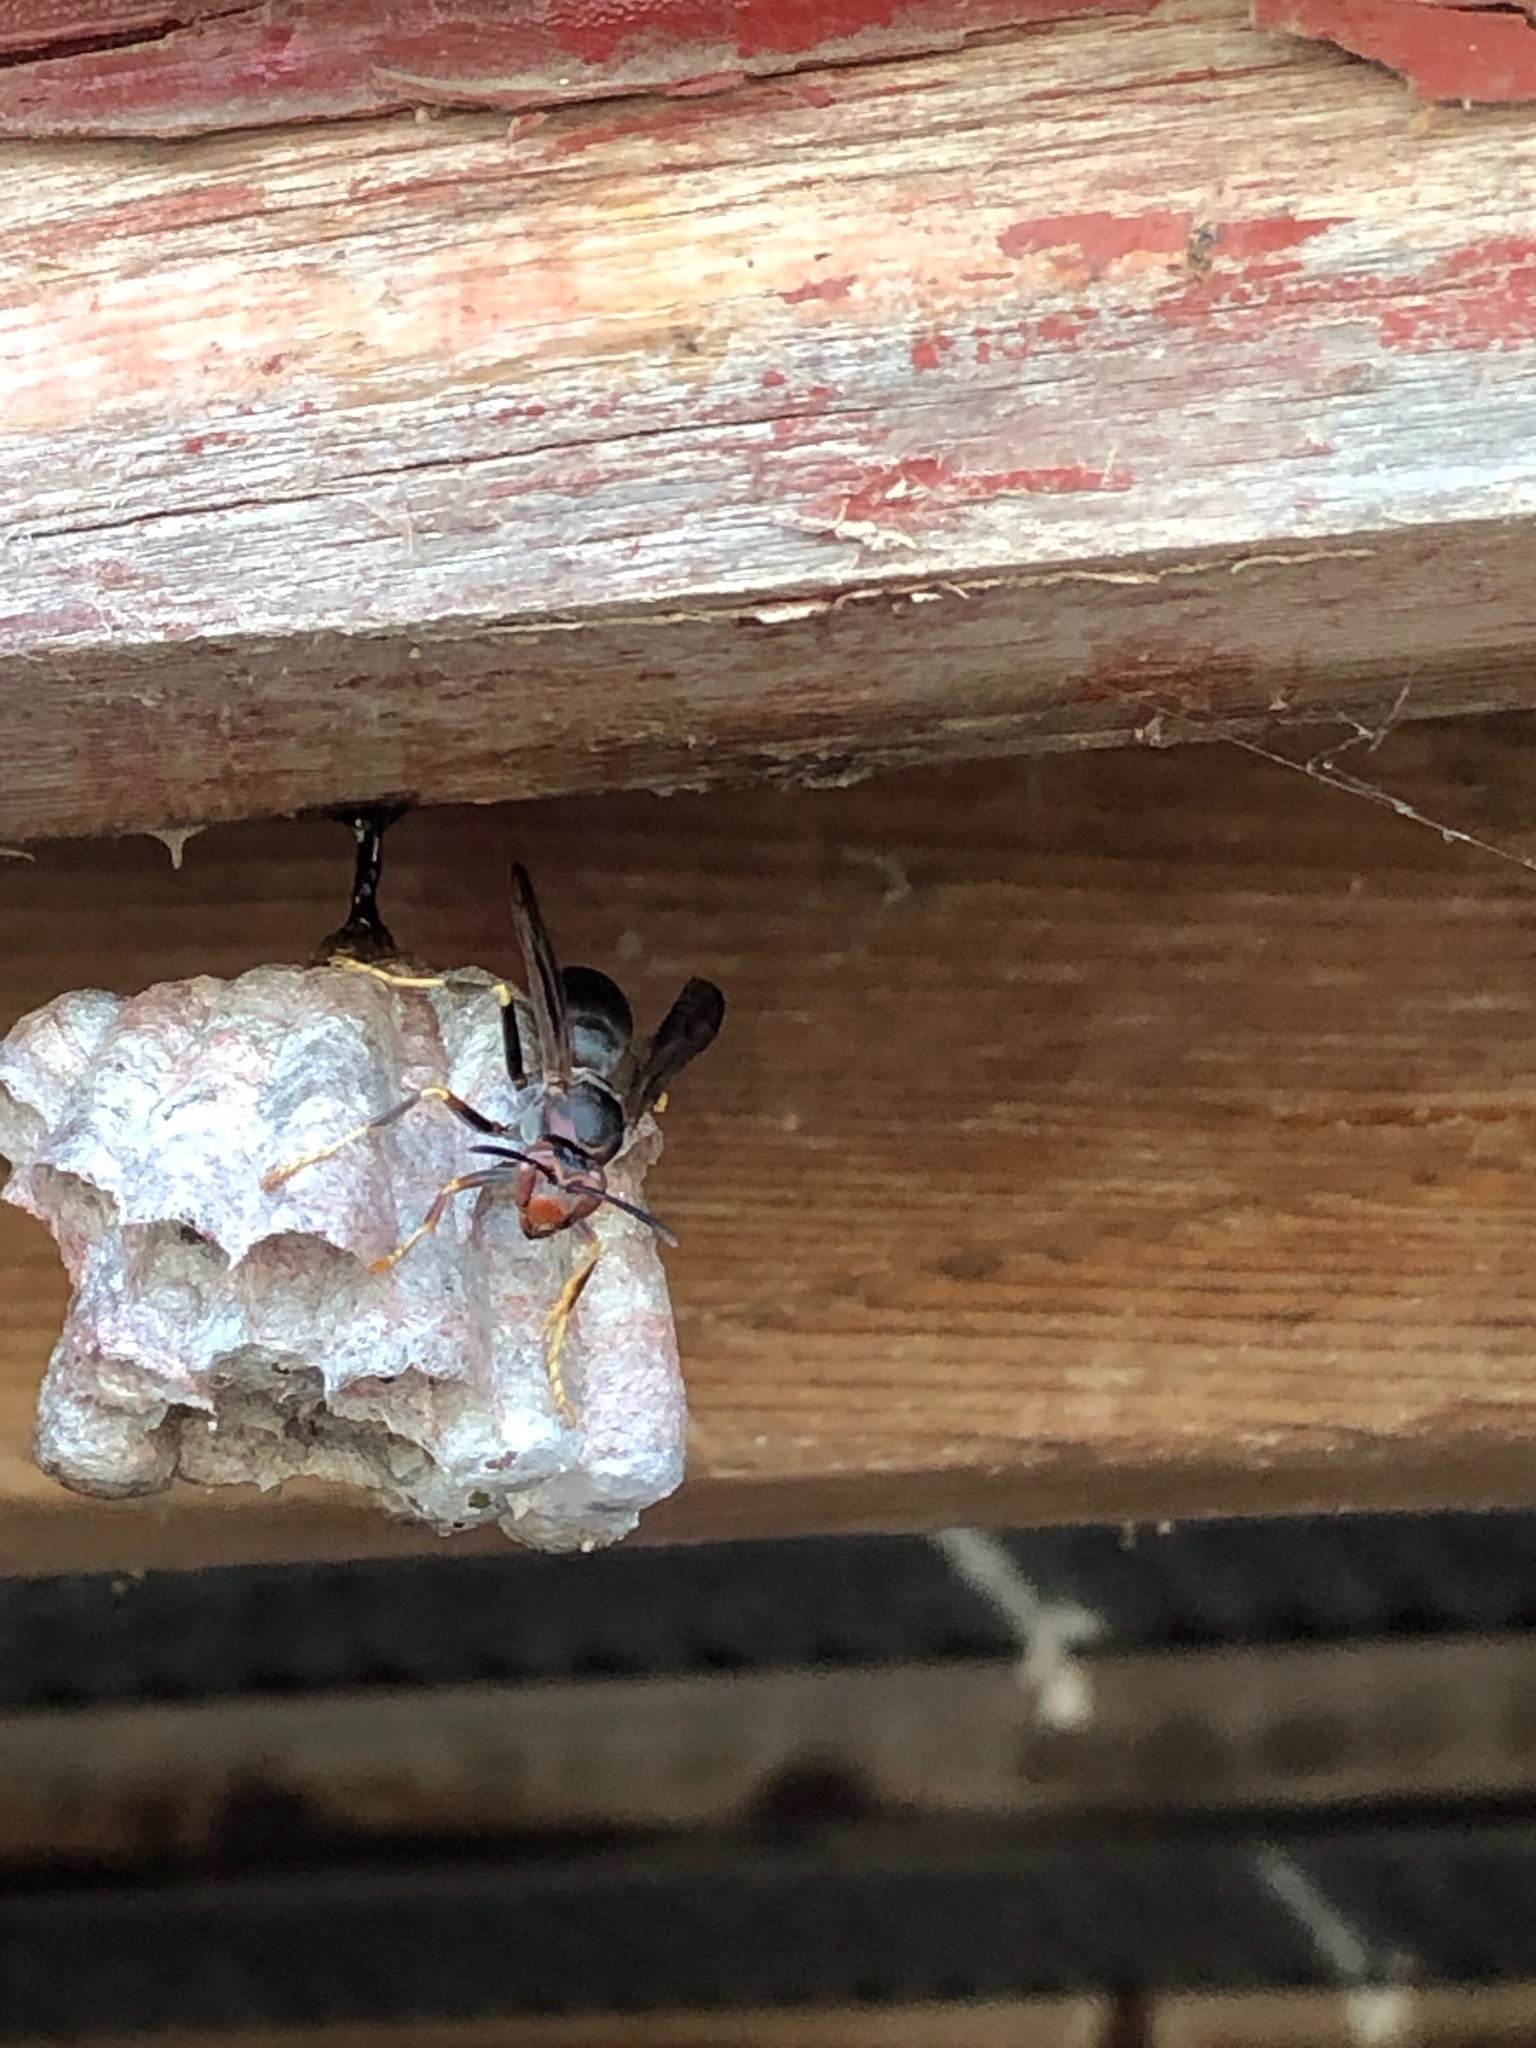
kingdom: Animalia
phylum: Arthropoda
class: Insecta
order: Hymenoptera
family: Eumenidae
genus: Polistes
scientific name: Polistes metricus
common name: Metric paper wasp
